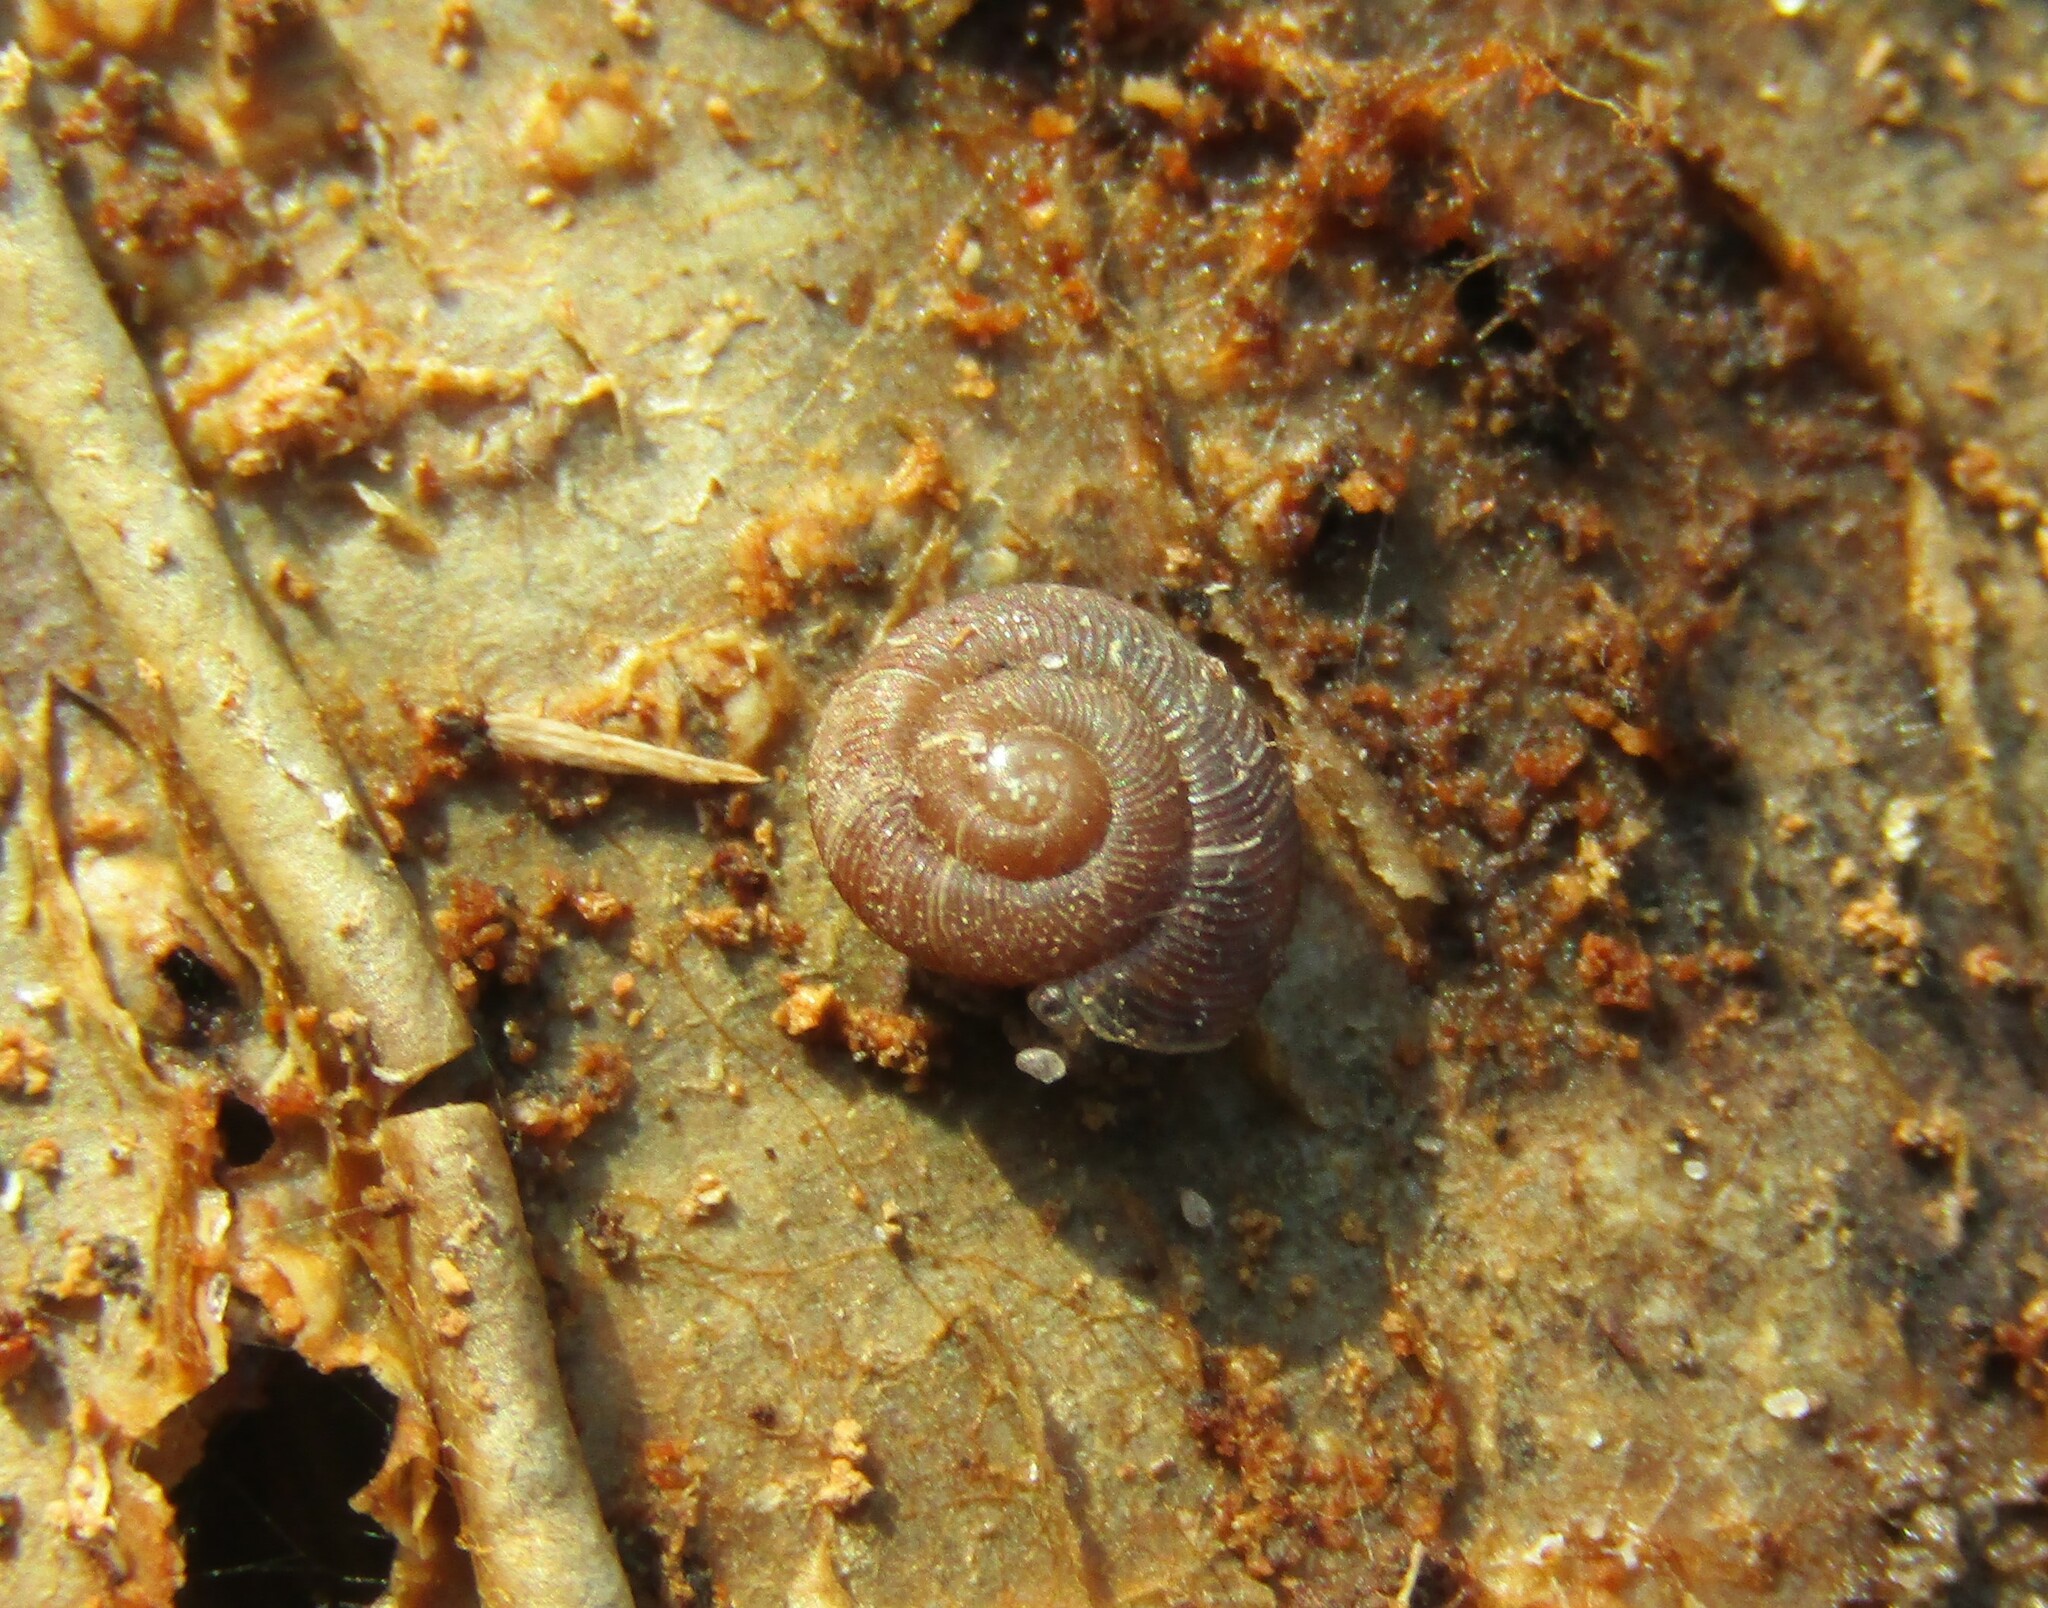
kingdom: Animalia
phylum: Mollusca
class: Gastropoda
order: Stylommatophora
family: Discidae
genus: Discus
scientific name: Discus ruderatus
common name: Brown disc snail
